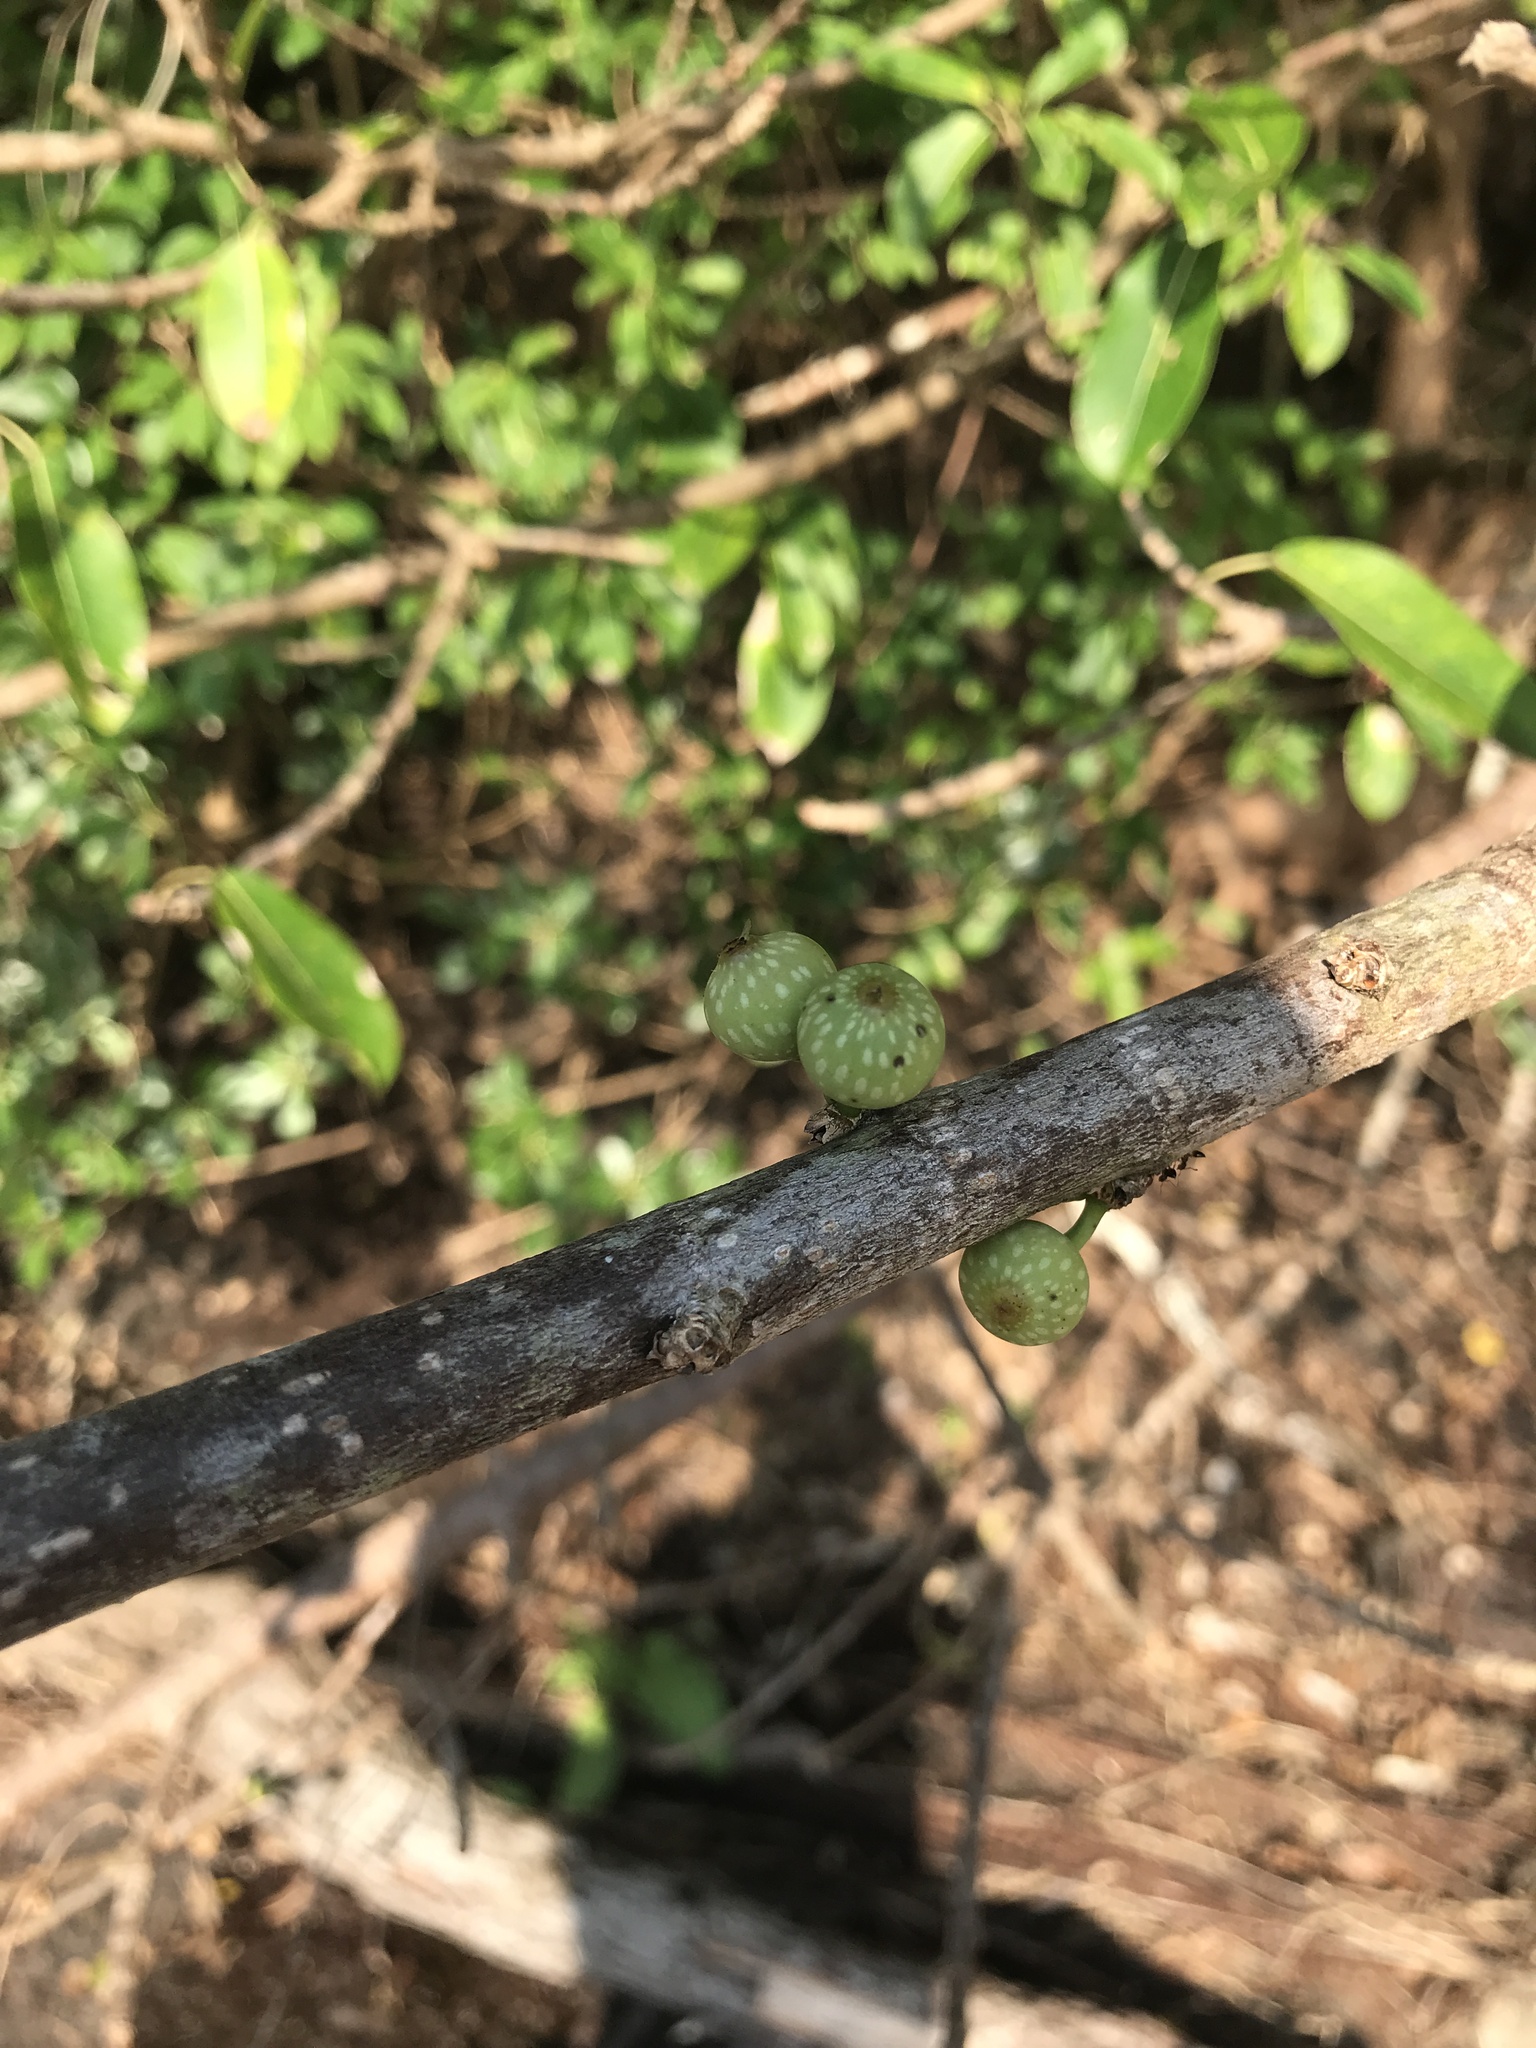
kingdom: Plantae
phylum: Tracheophyta
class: Magnoliopsida
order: Rosales
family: Moraceae
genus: Ficus
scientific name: Ficus subpisocarpa
